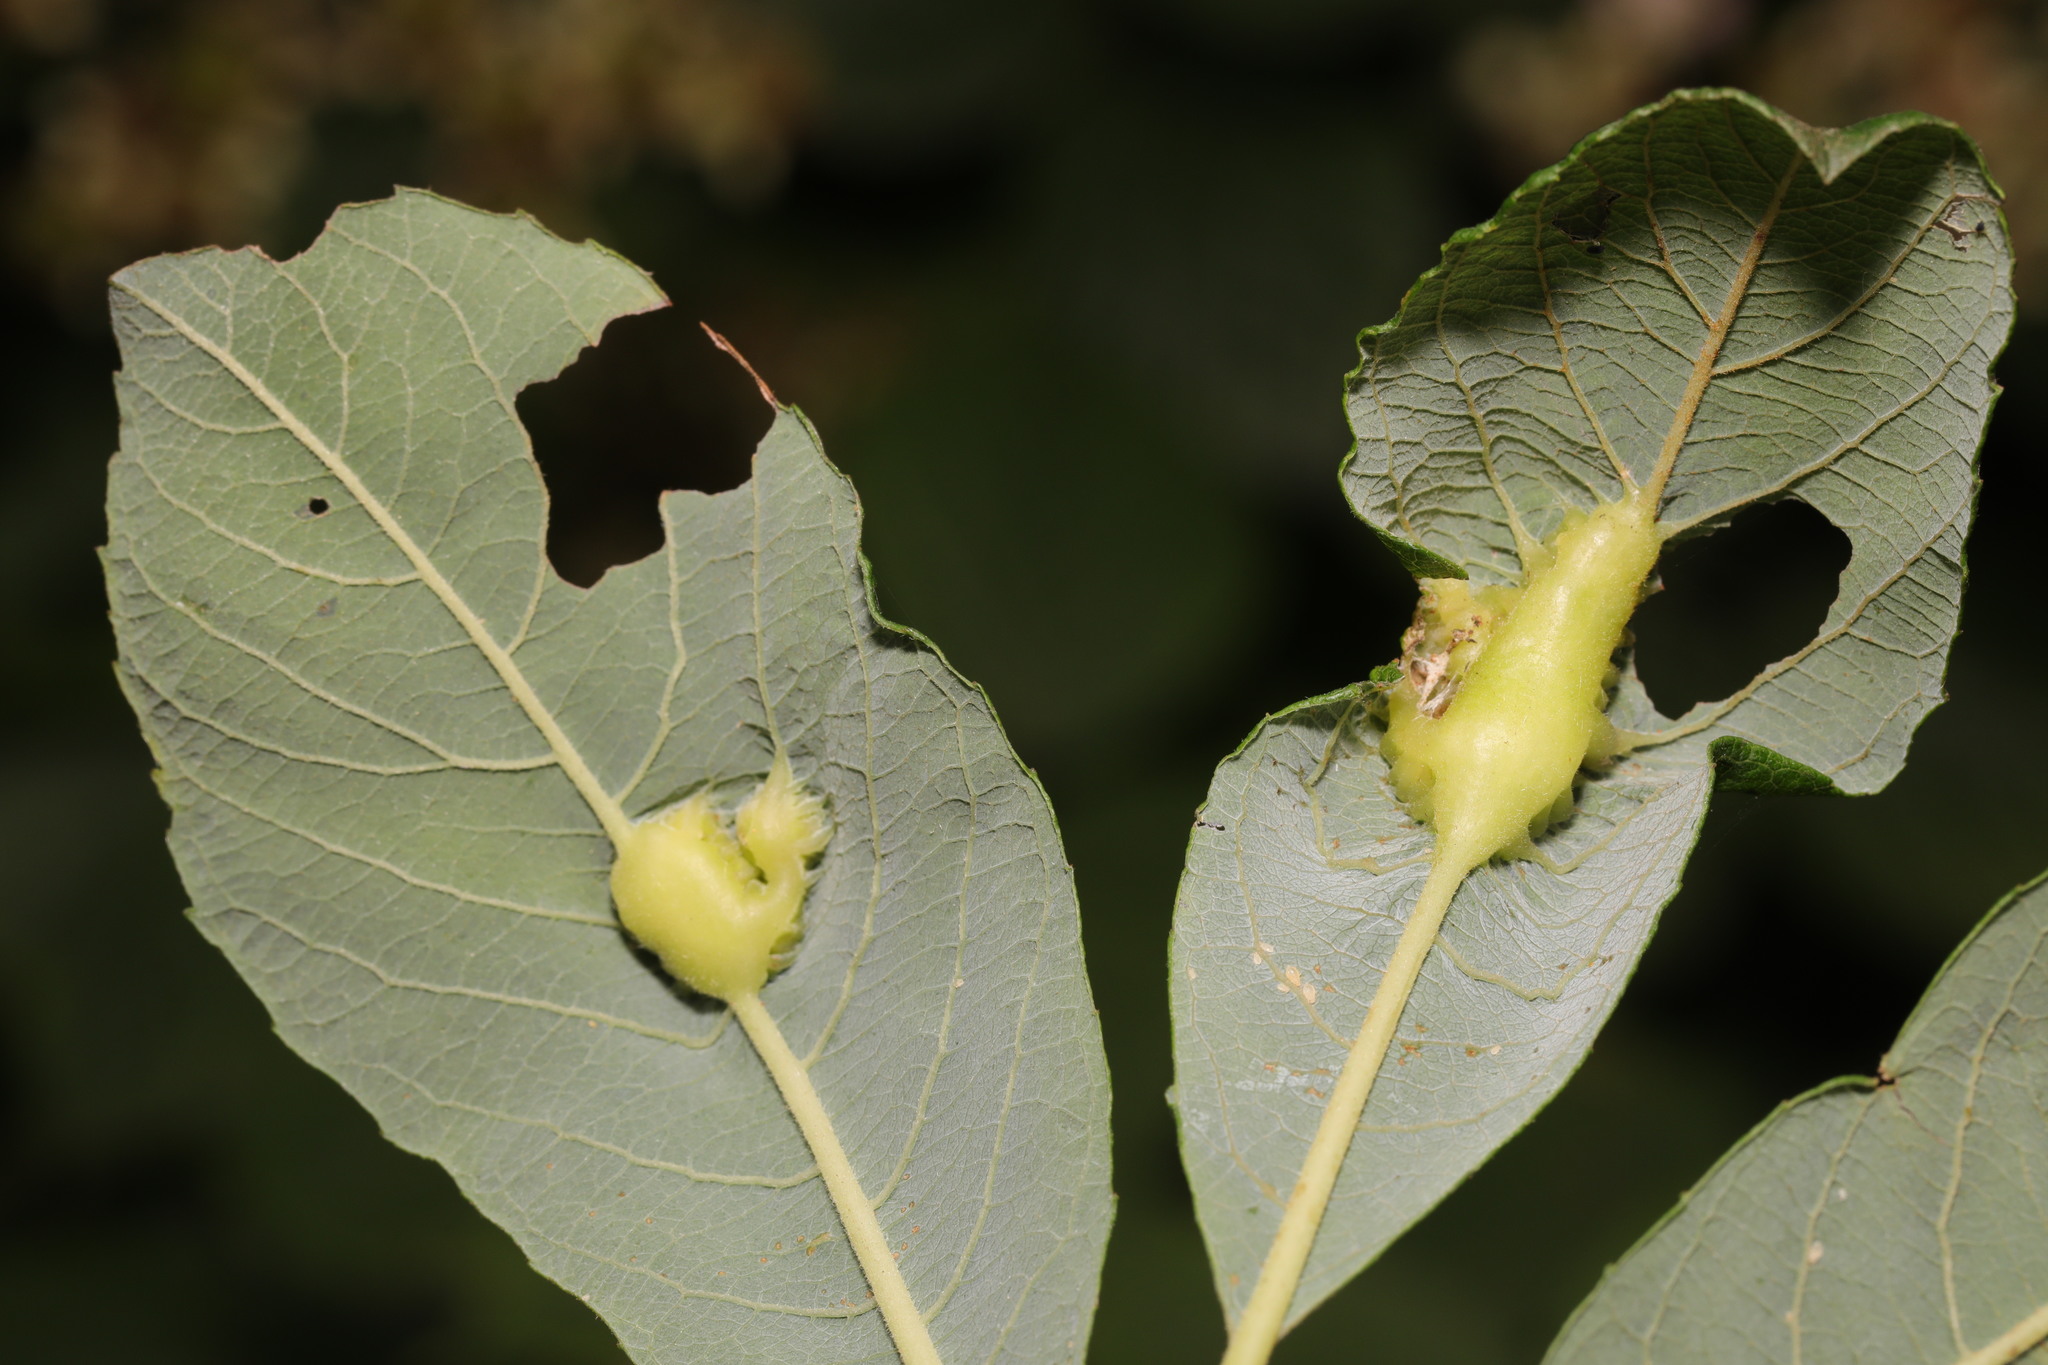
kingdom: Animalia
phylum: Arthropoda
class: Insecta
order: Diptera
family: Cecidomyiidae
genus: Iteomyia
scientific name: Iteomyia major
